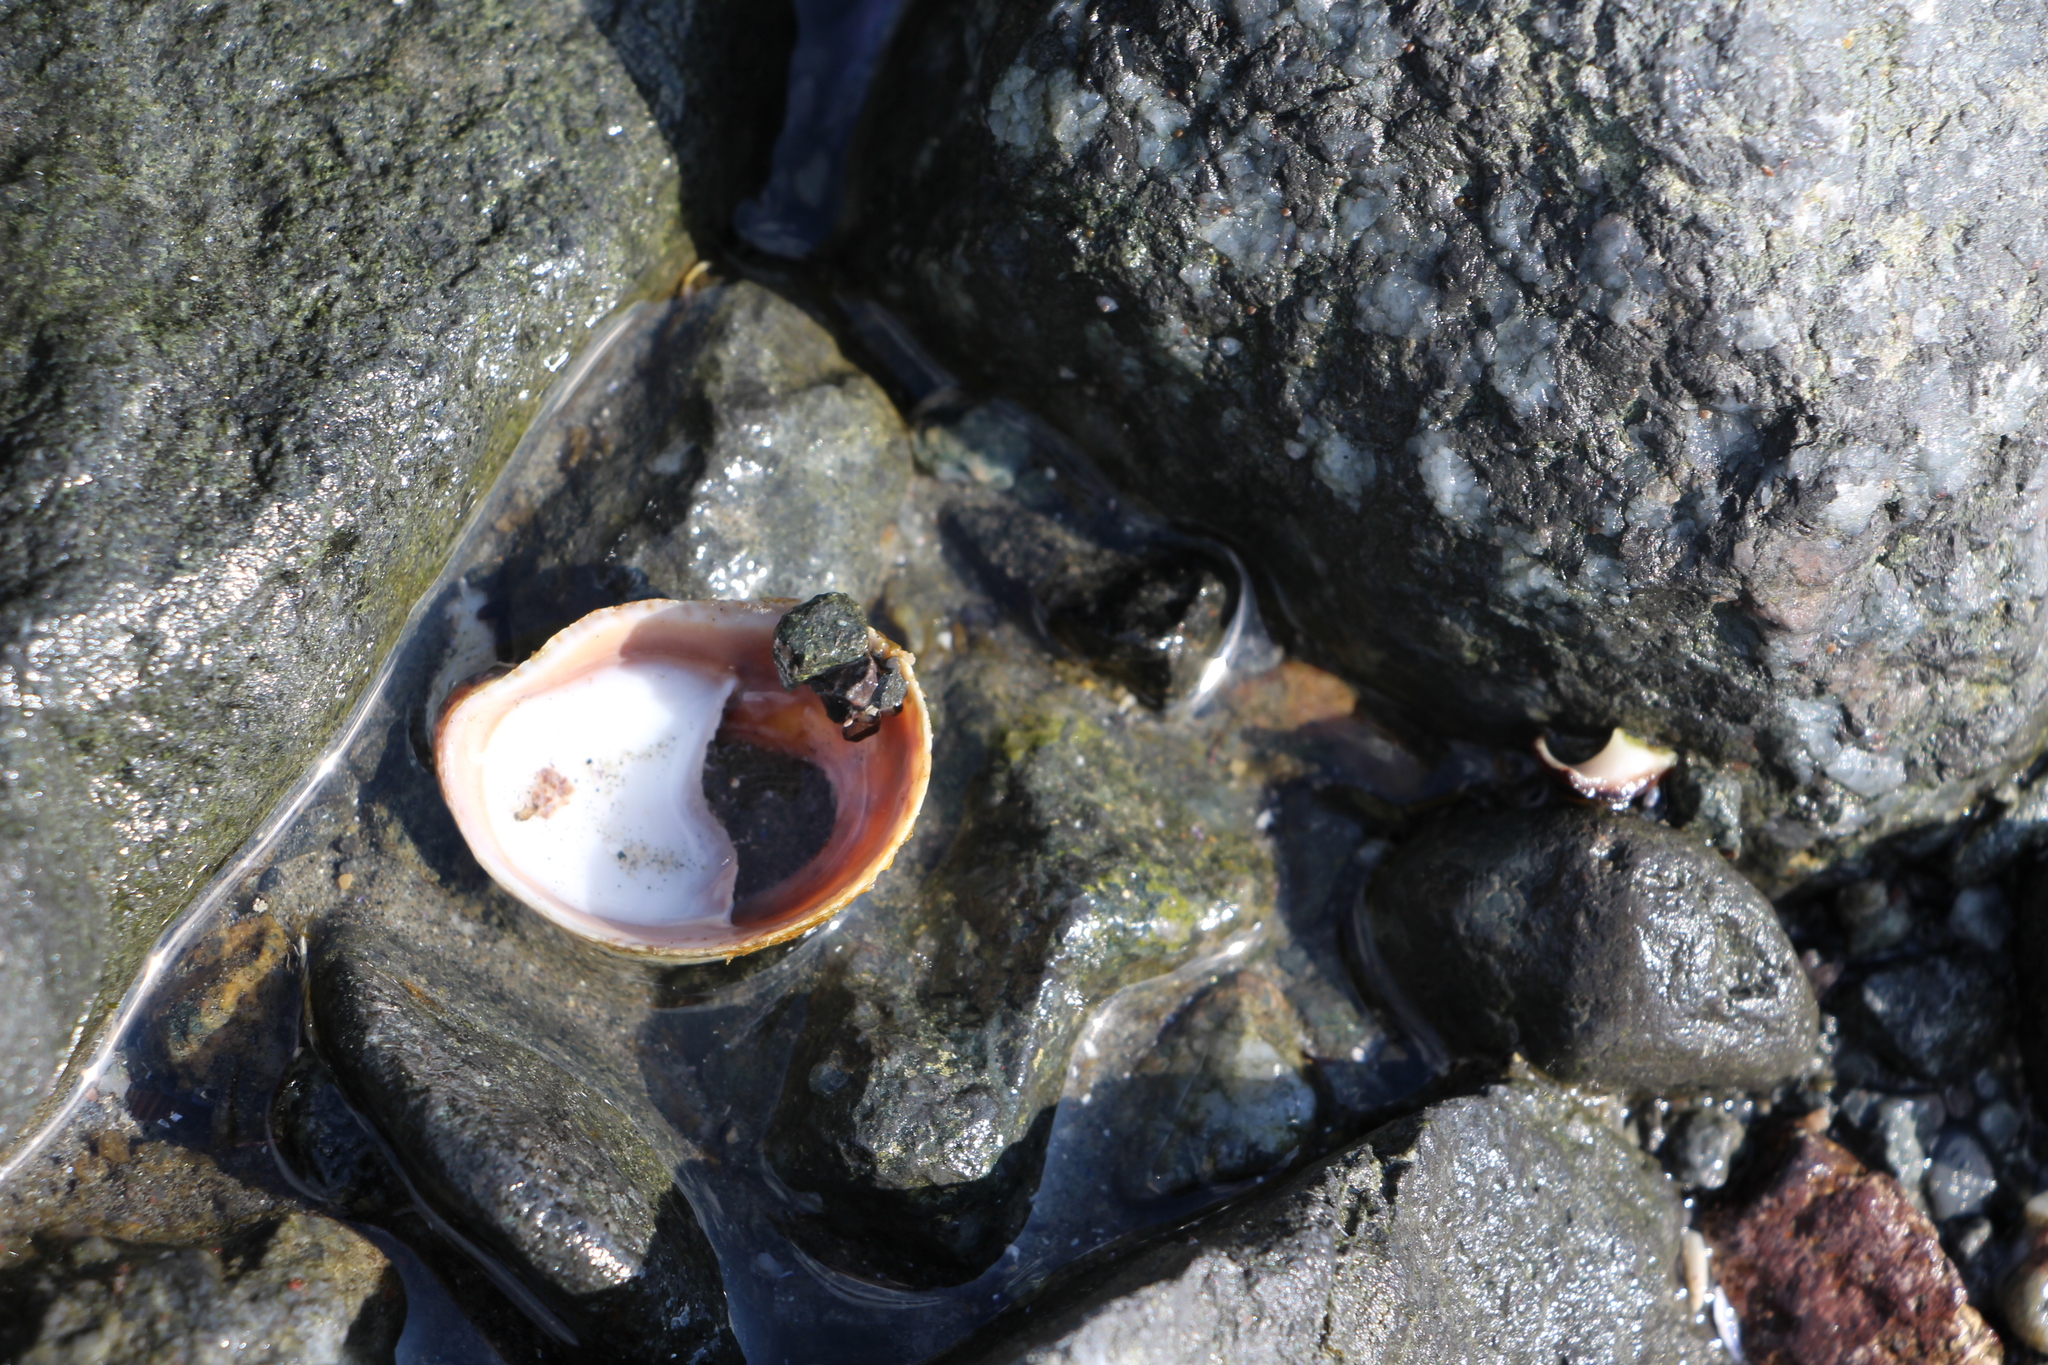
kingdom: Animalia
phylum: Mollusca
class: Gastropoda
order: Littorinimorpha
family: Calyptraeidae
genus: Crepidula
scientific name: Crepidula fornicata
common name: Slipper limpet
